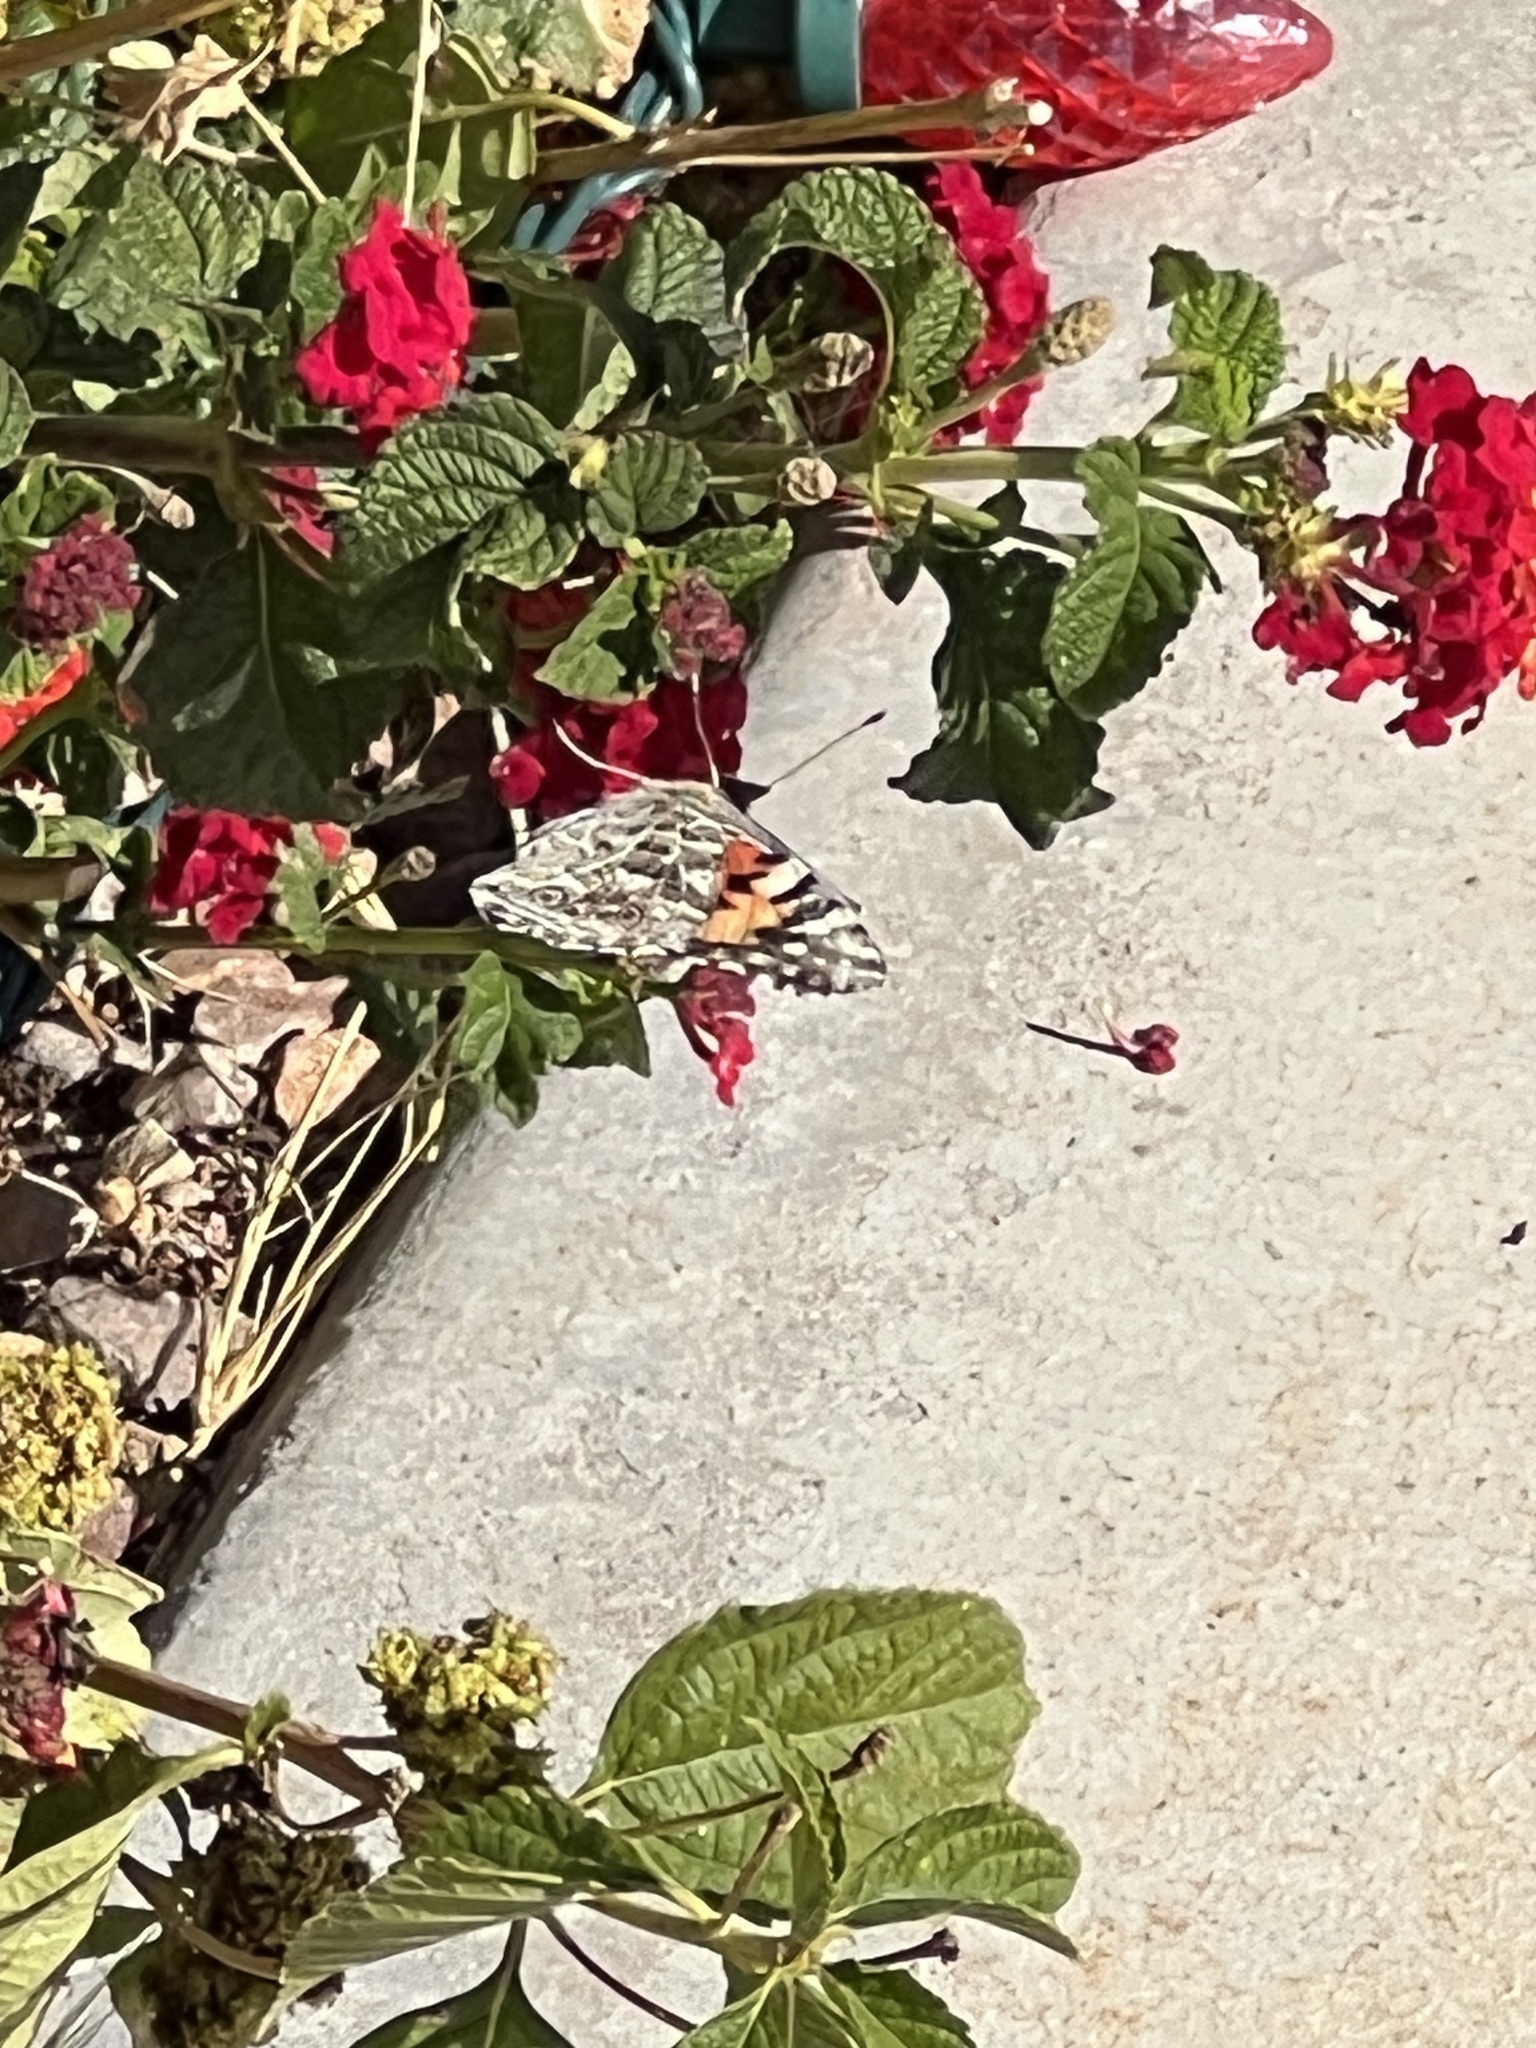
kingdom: Animalia
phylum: Arthropoda
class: Insecta
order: Lepidoptera
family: Nymphalidae
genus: Vanessa
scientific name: Vanessa cardui
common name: Painted lady
